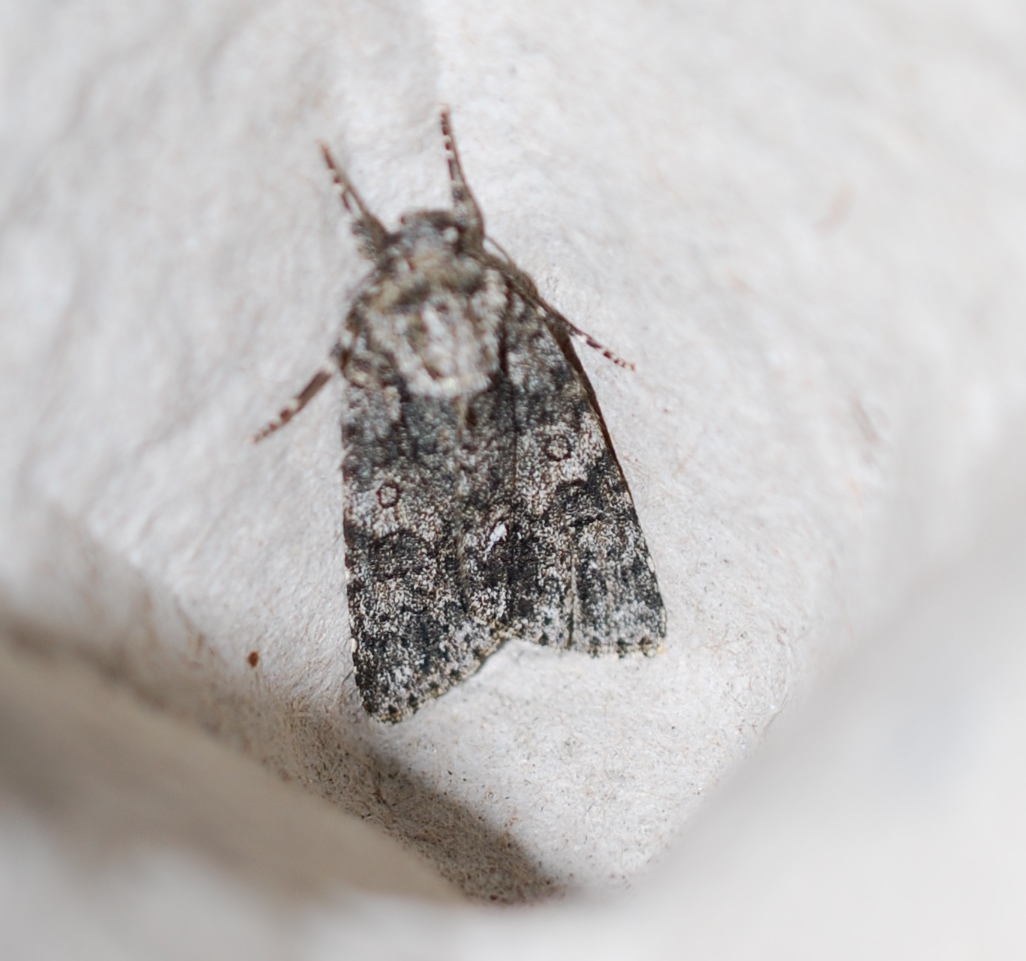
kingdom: Animalia
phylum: Arthropoda
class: Insecta
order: Lepidoptera
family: Noctuidae
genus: Acronicta
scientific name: Acronicta rumicis
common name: Knot grass
